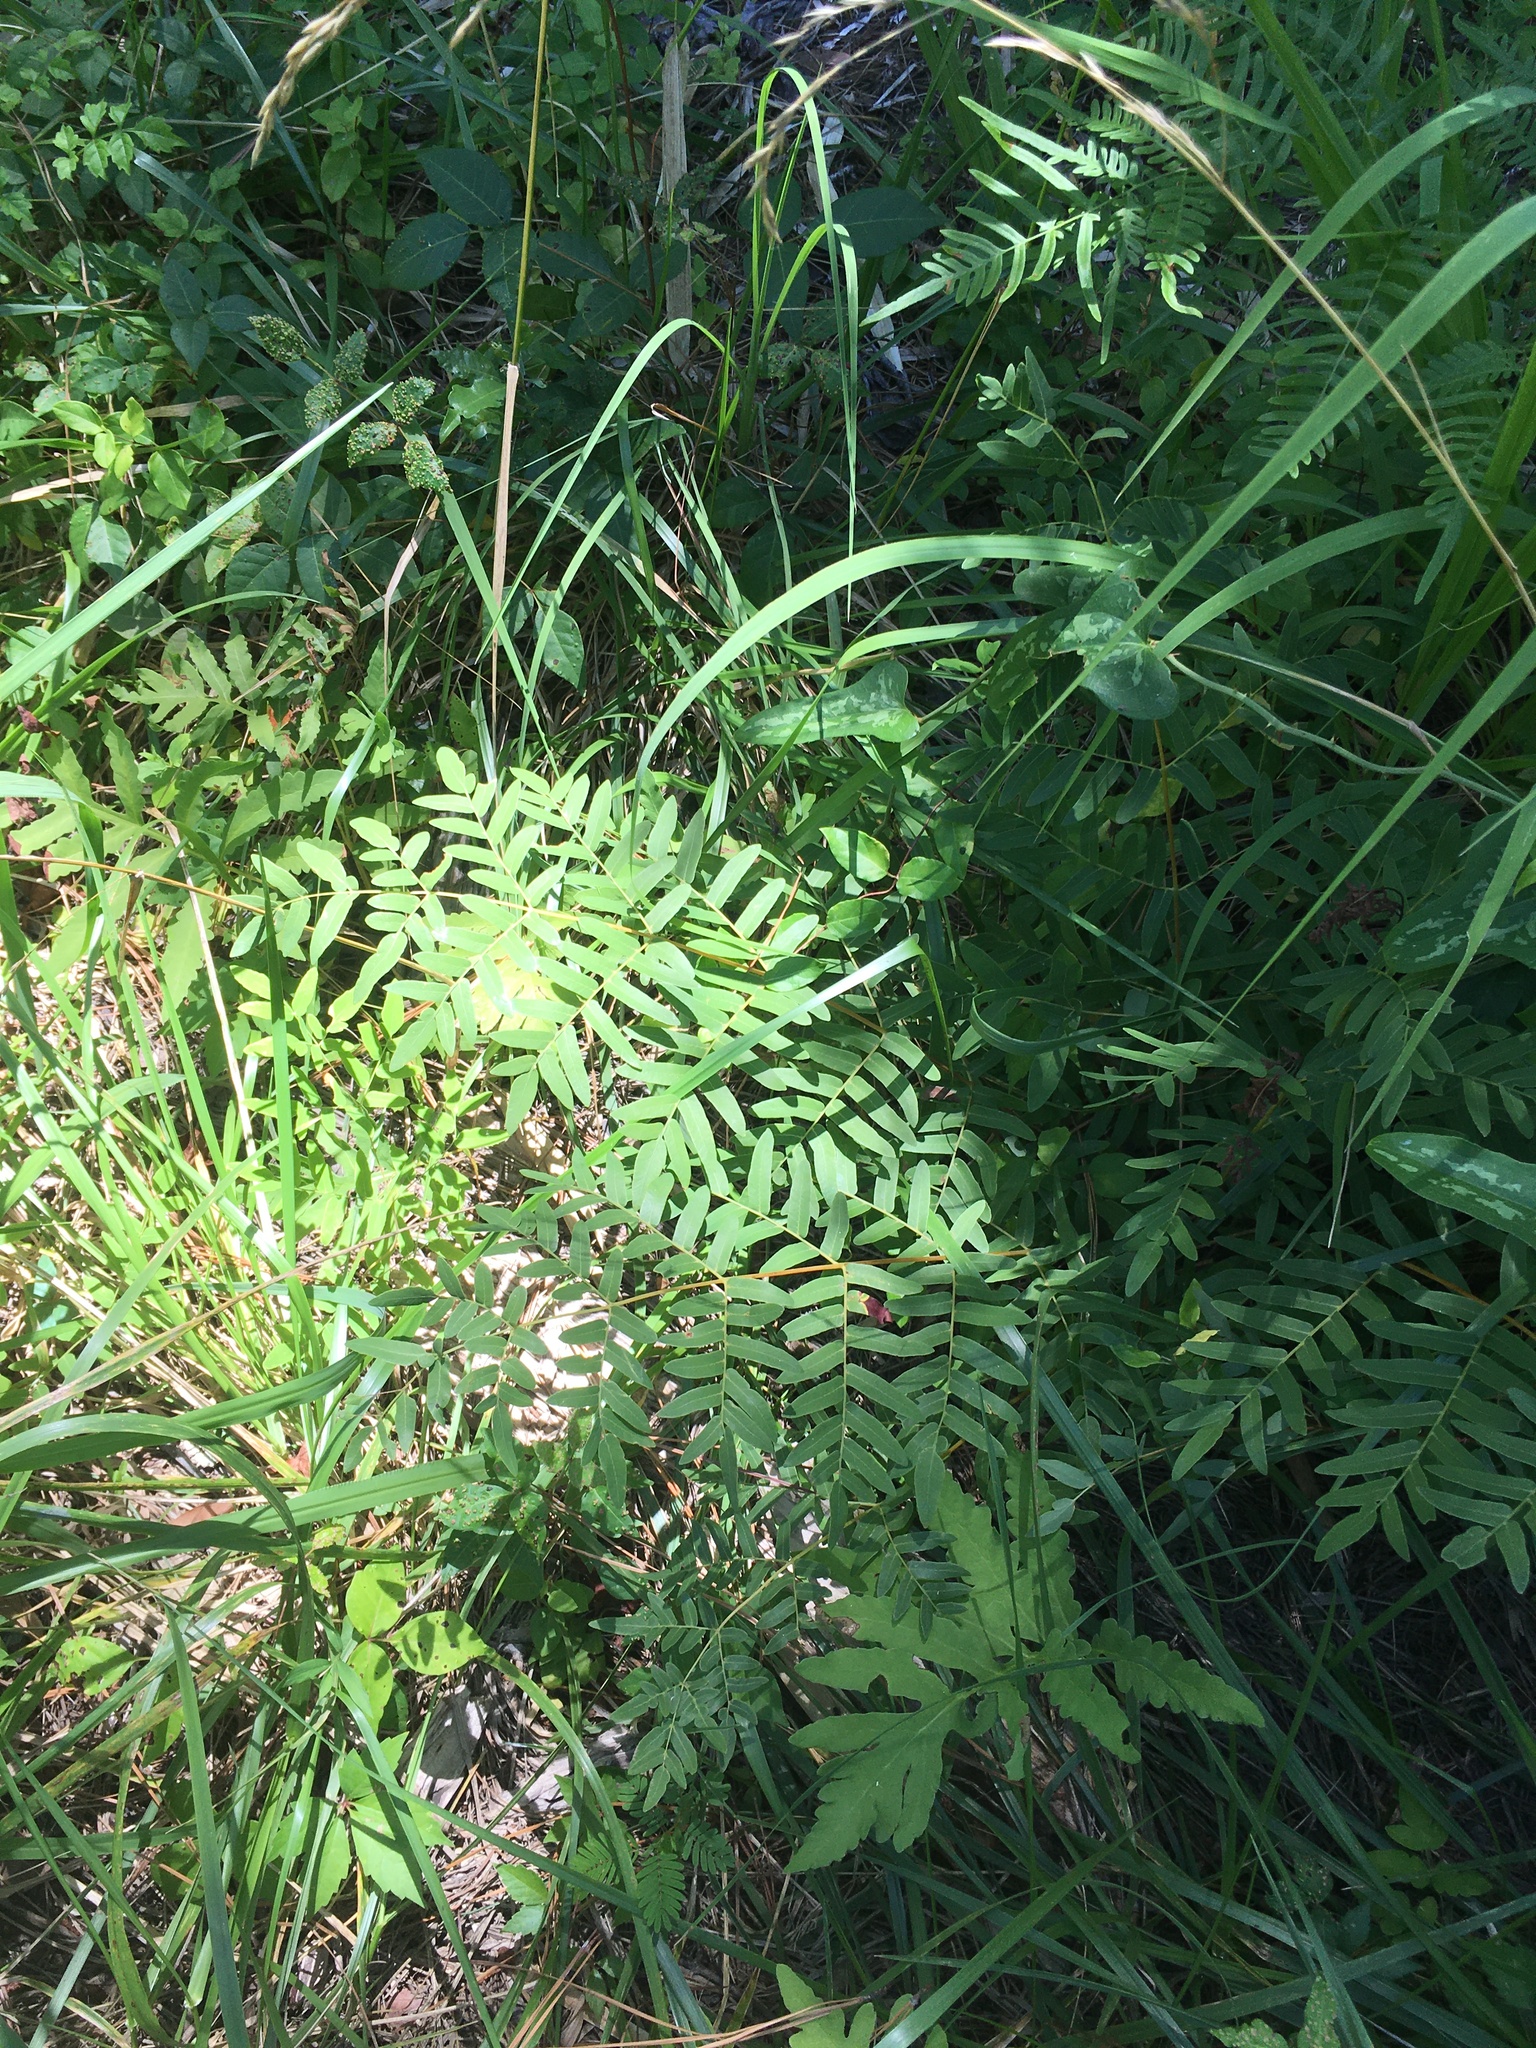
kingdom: Plantae
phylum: Tracheophyta
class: Polypodiopsida
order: Osmundales
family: Osmundaceae
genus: Osmunda
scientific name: Osmunda spectabilis
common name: American royal fern
